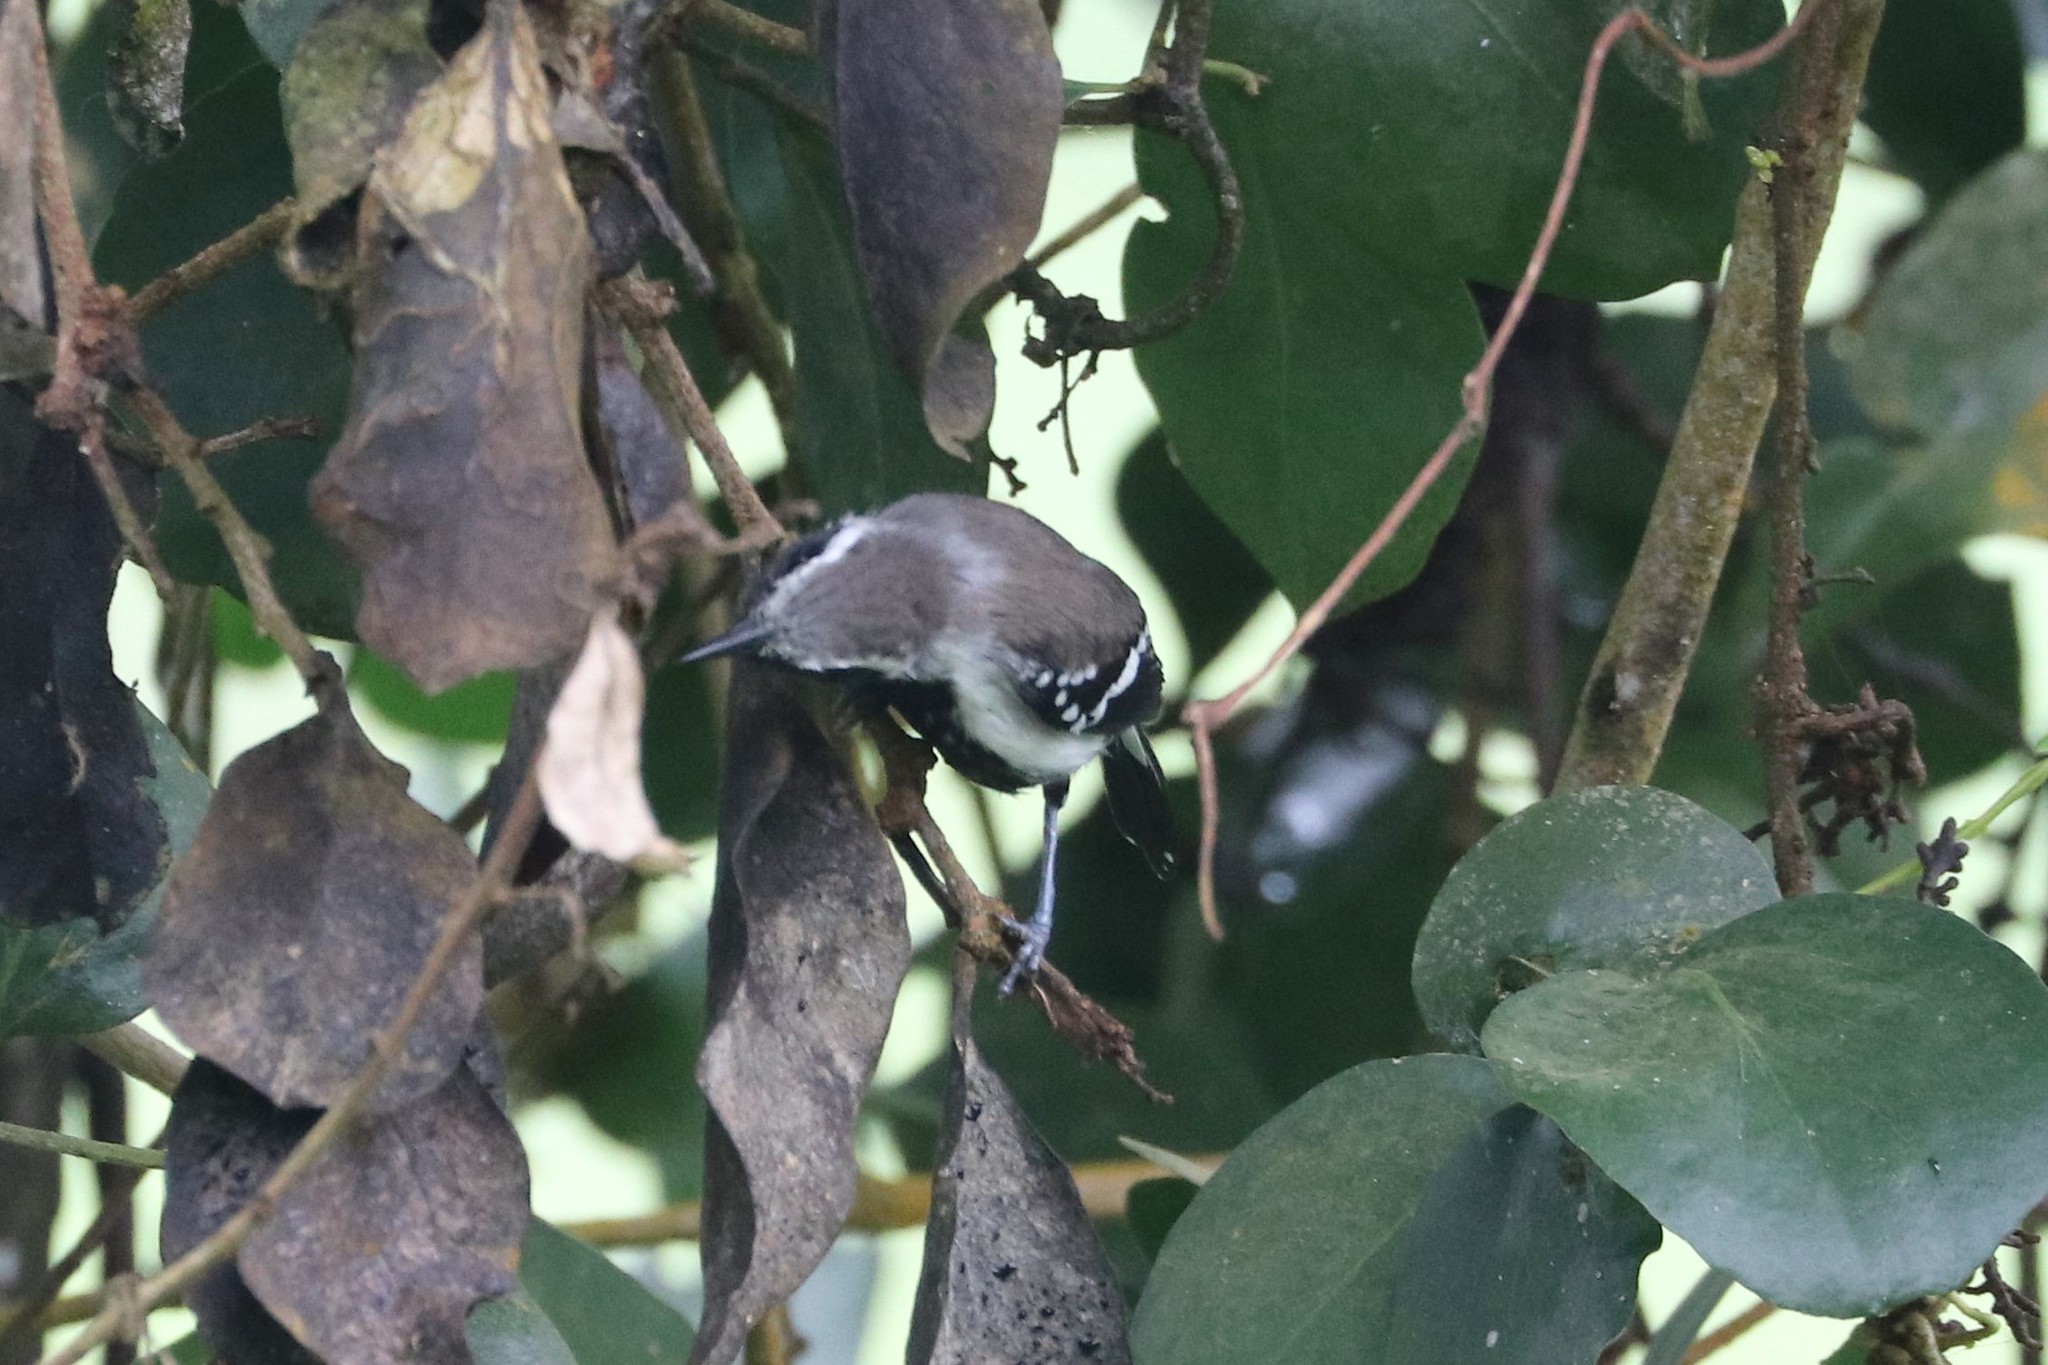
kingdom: Animalia
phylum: Chordata
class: Aves
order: Passeriformes
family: Thamnophilidae
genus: Formicivora
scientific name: Formicivora intermedia
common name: Northern white-fringed antwren
